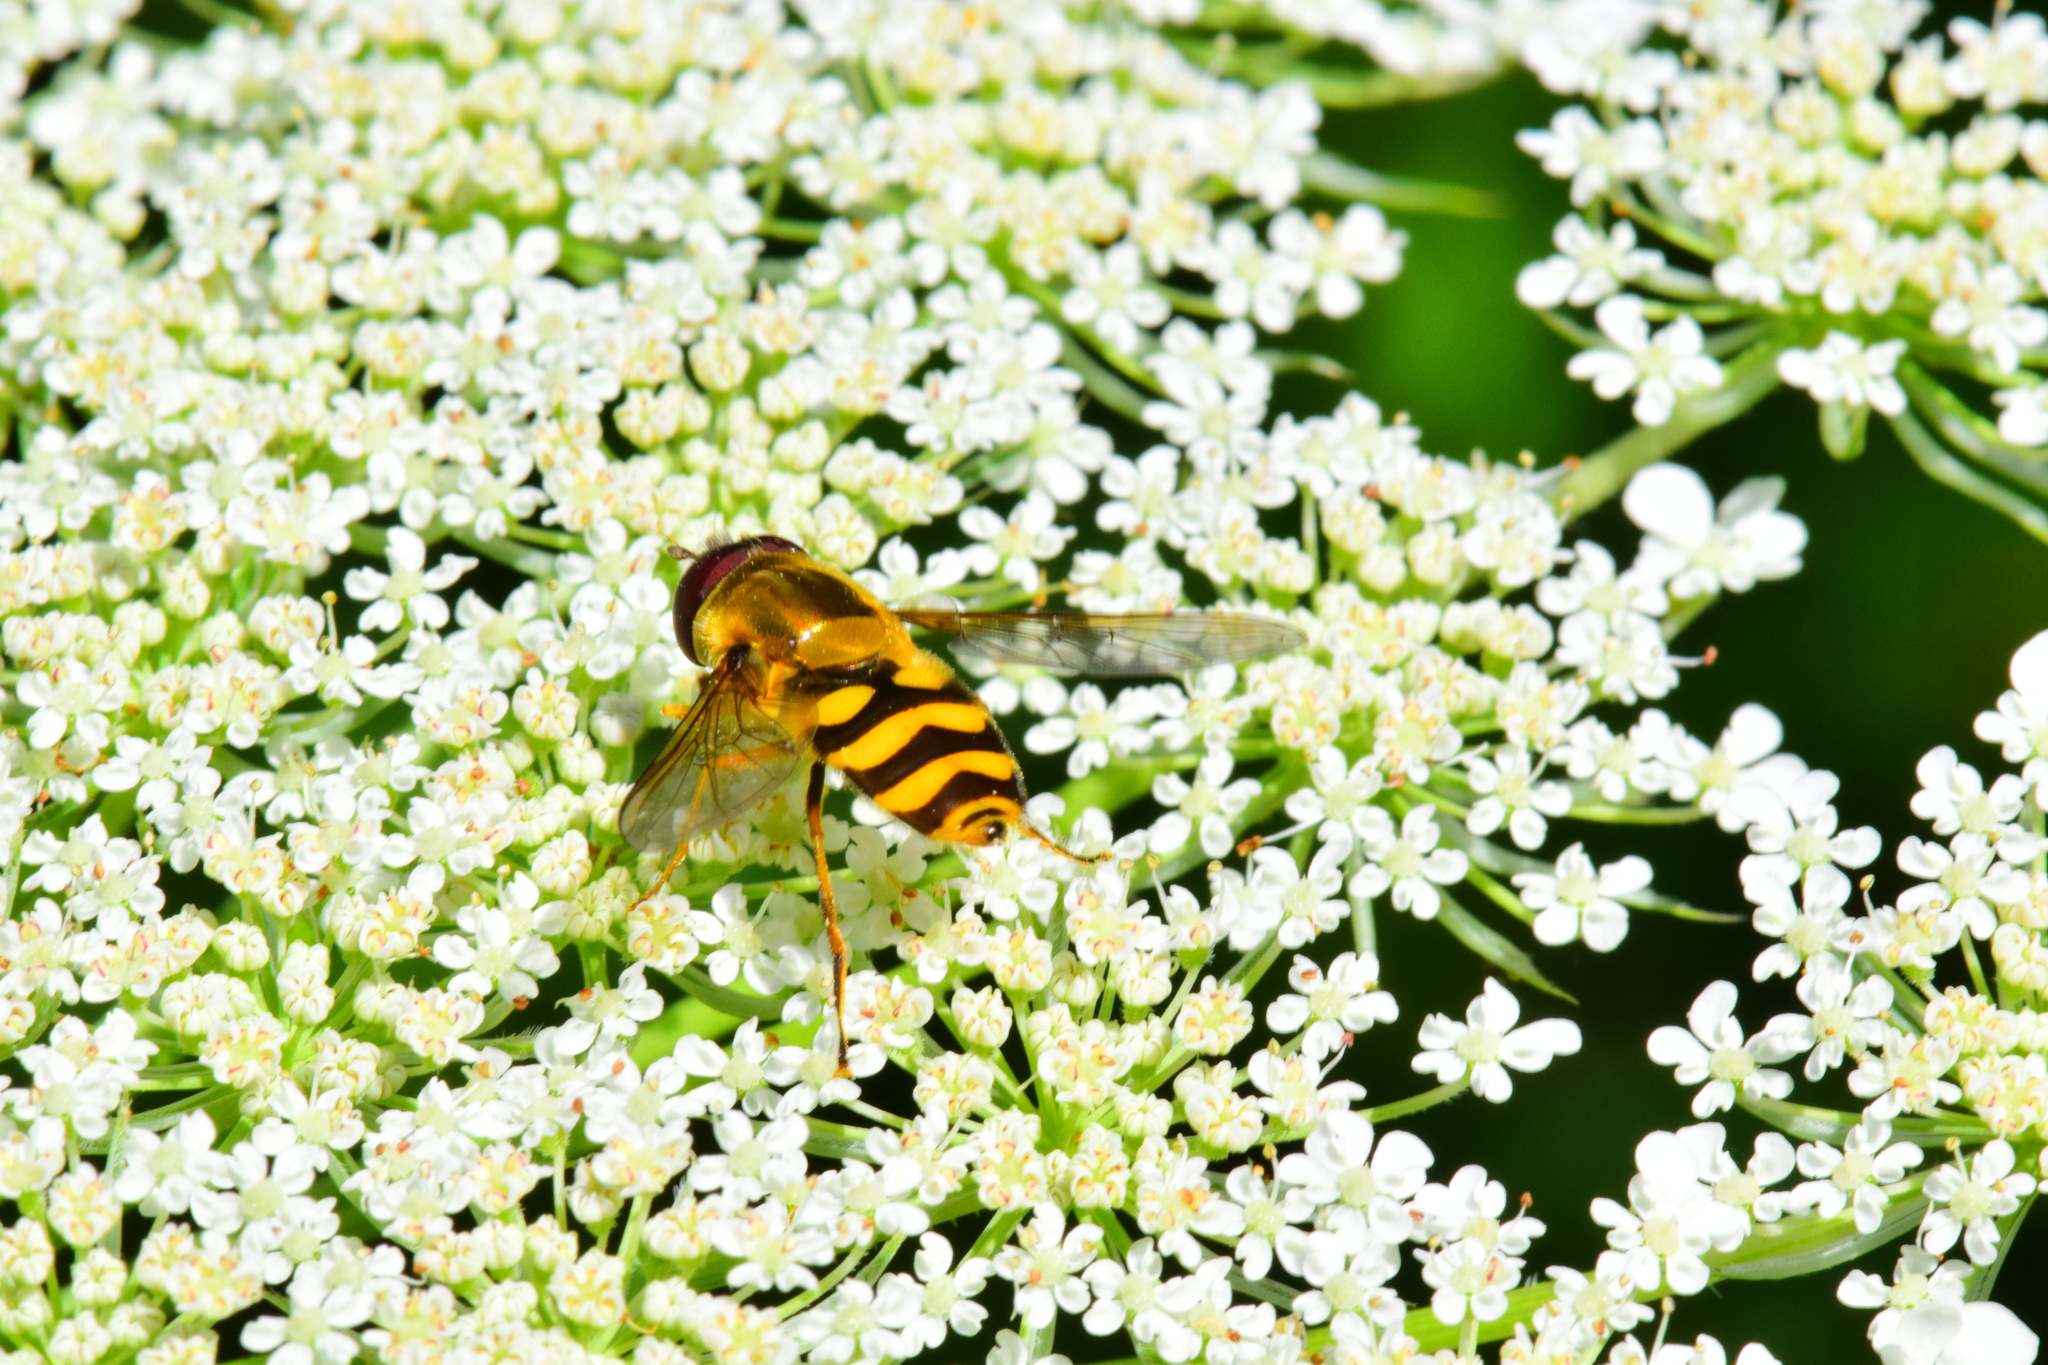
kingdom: Animalia
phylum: Arthropoda
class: Insecta
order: Diptera
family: Syrphidae
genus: Syrphus
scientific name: Syrphus
